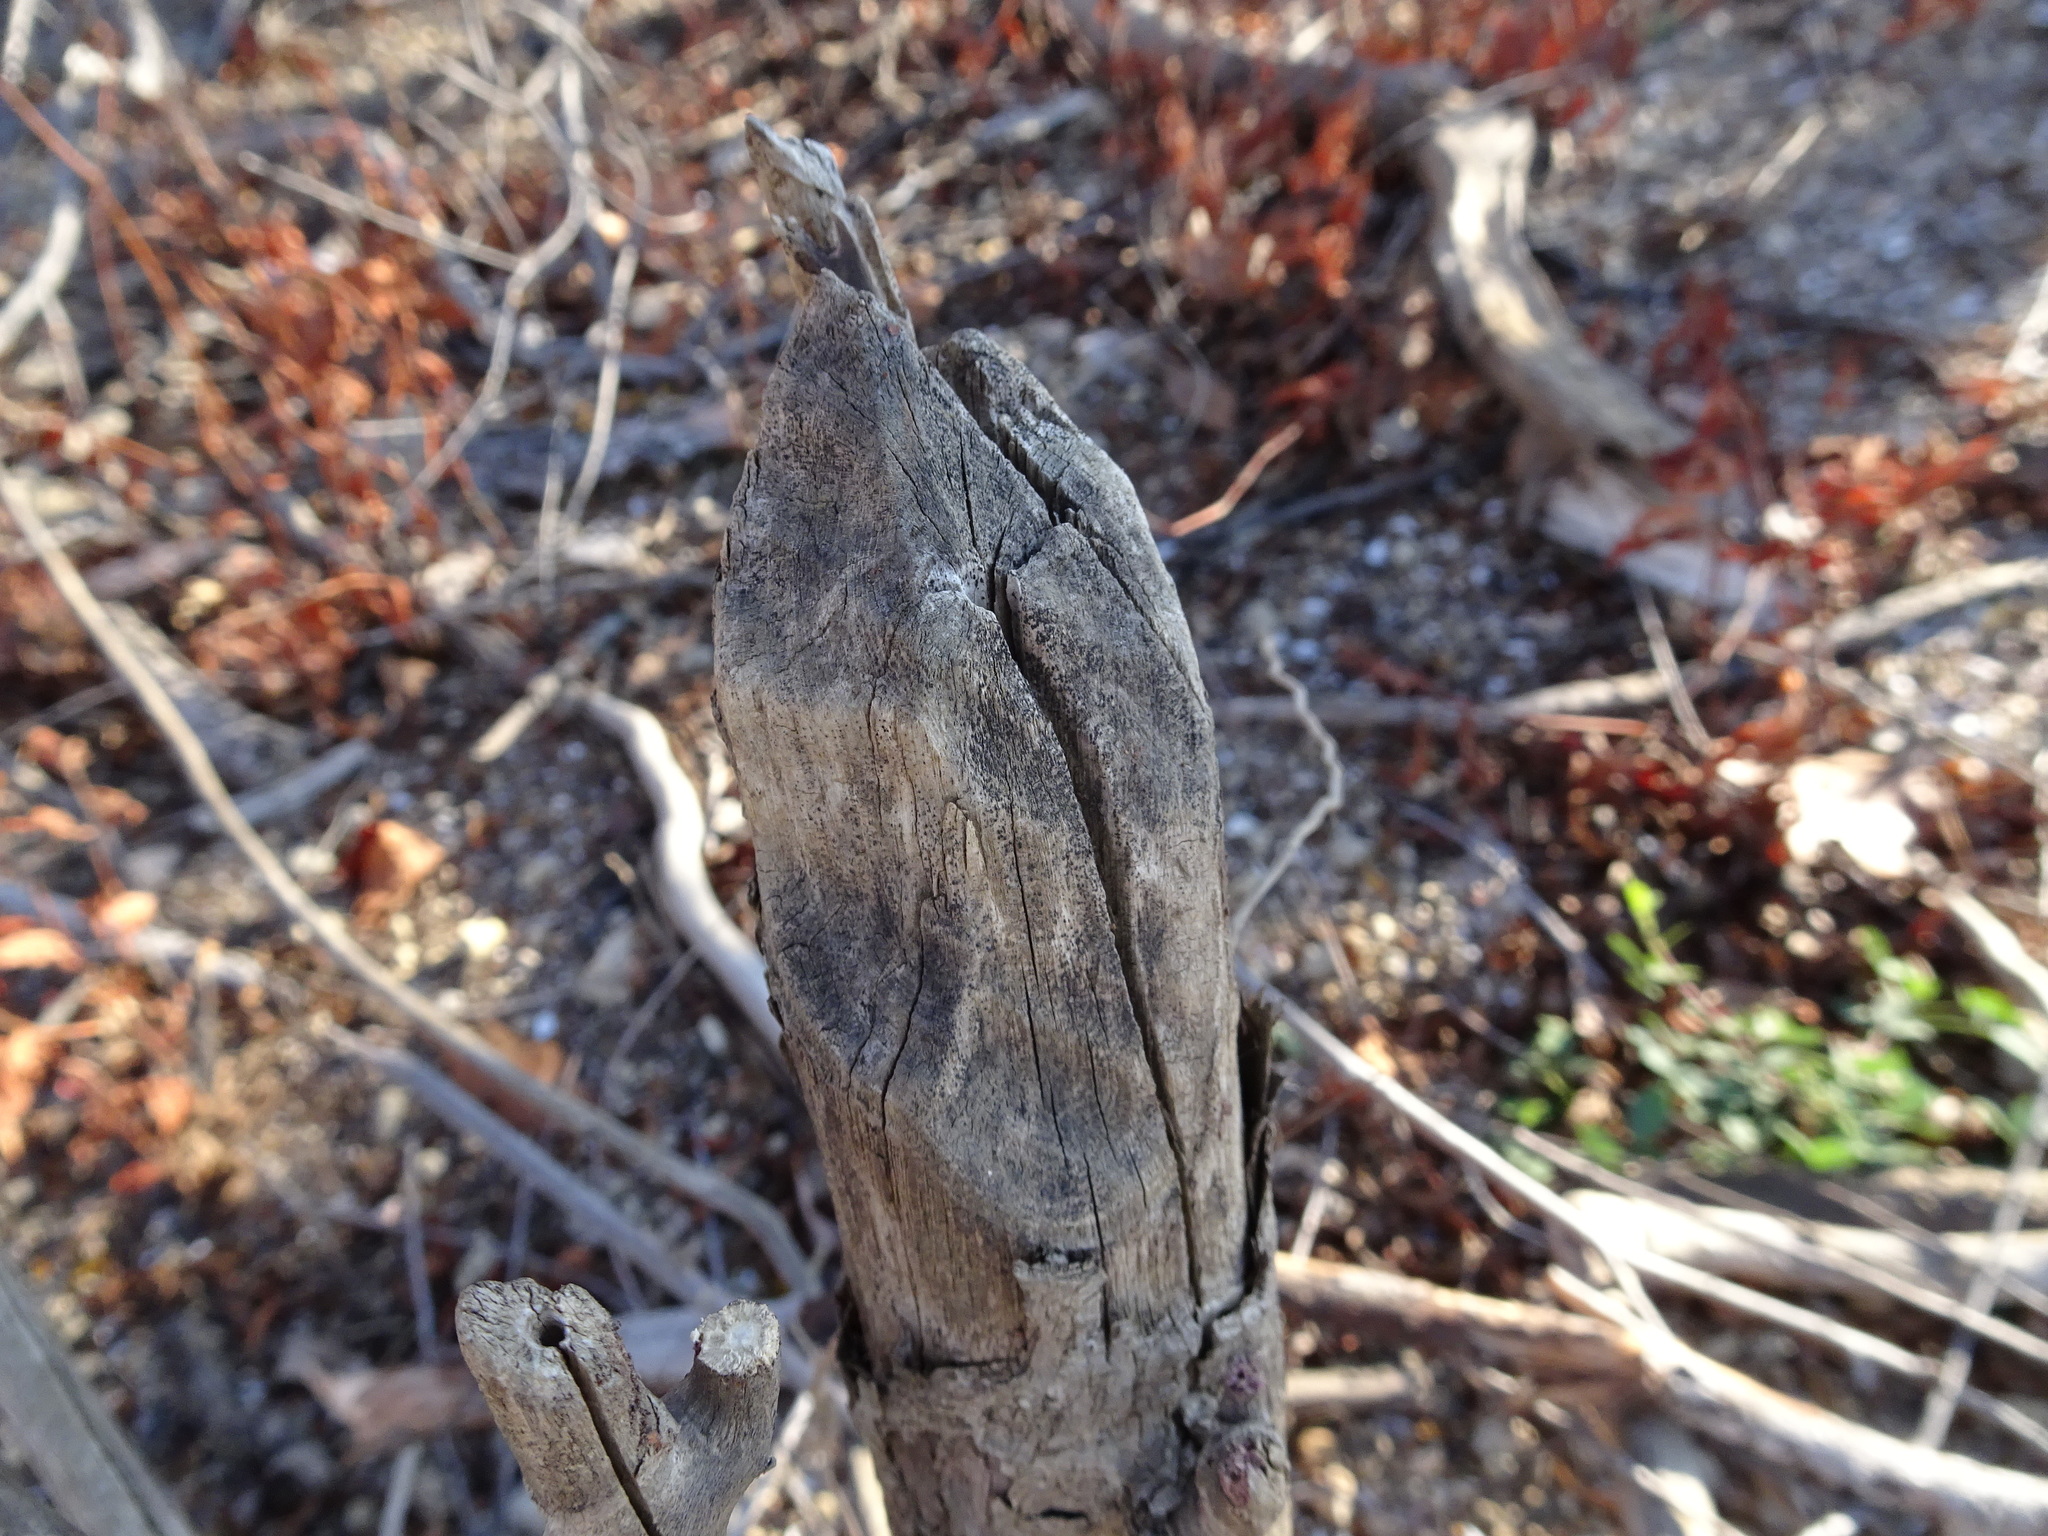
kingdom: Animalia
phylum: Chordata
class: Mammalia
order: Rodentia
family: Castoridae
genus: Castor
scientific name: Castor canadensis
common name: American beaver
